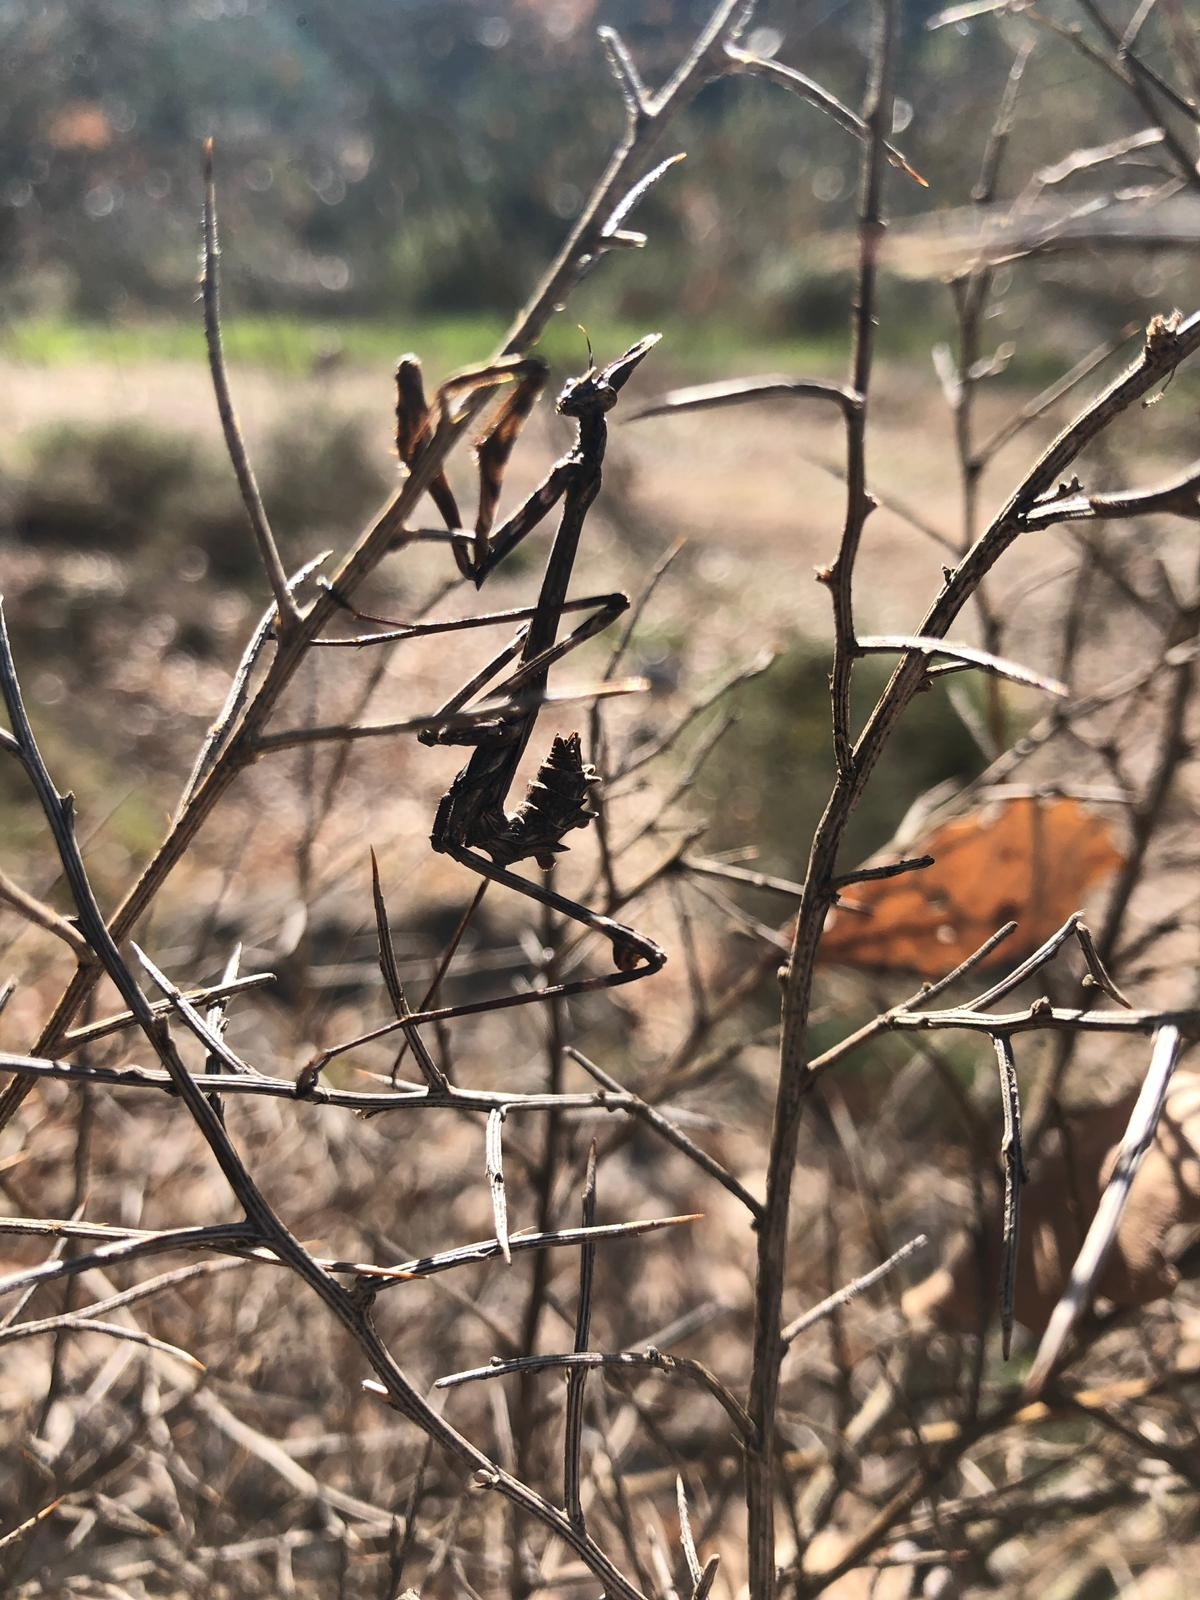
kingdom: Animalia
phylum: Arthropoda
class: Insecta
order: Mantodea
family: Empusidae
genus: Empusa
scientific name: Empusa pennata
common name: Conehead mantis
